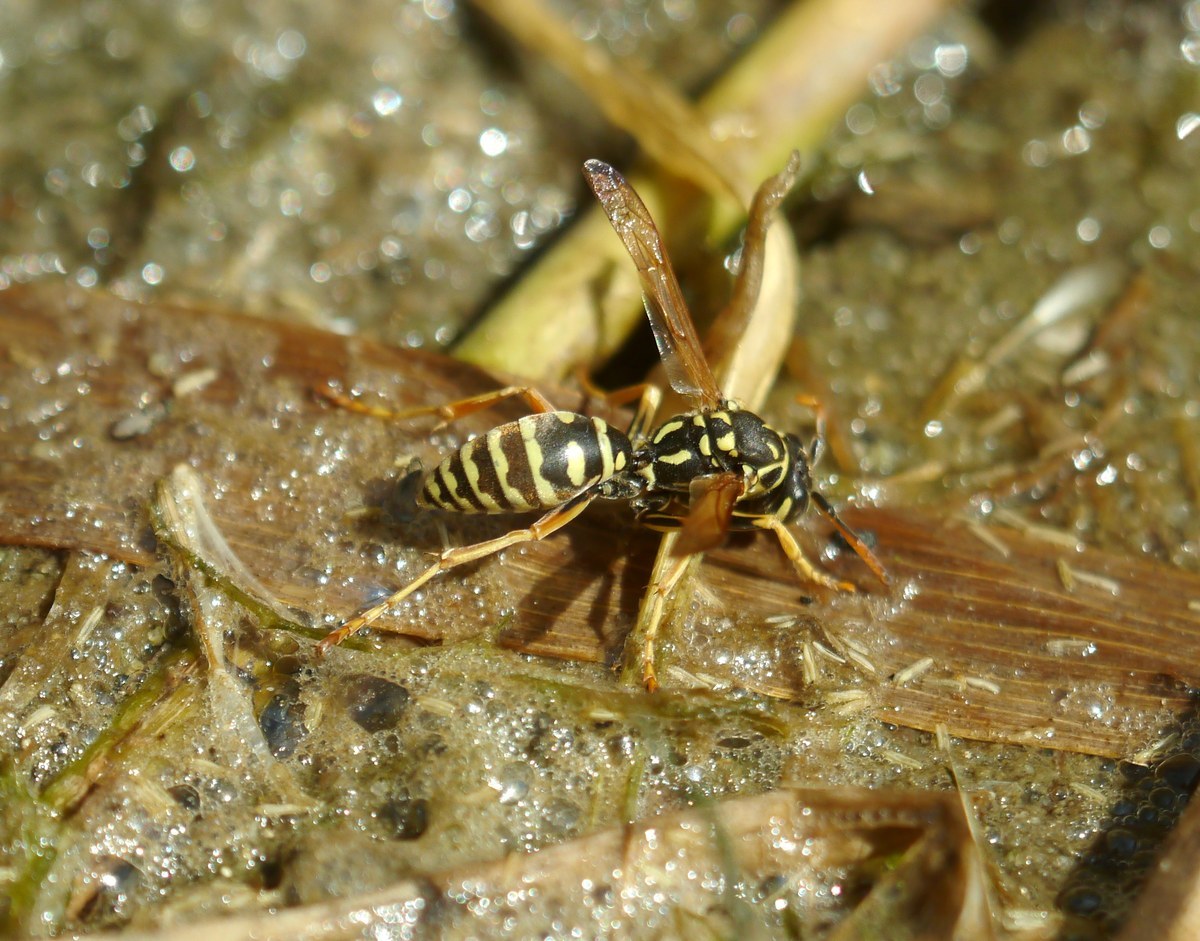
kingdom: Animalia
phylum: Arthropoda
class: Insecta
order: Hymenoptera
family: Eumenidae
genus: Polistes
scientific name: Polistes dominula
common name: Paper wasp
